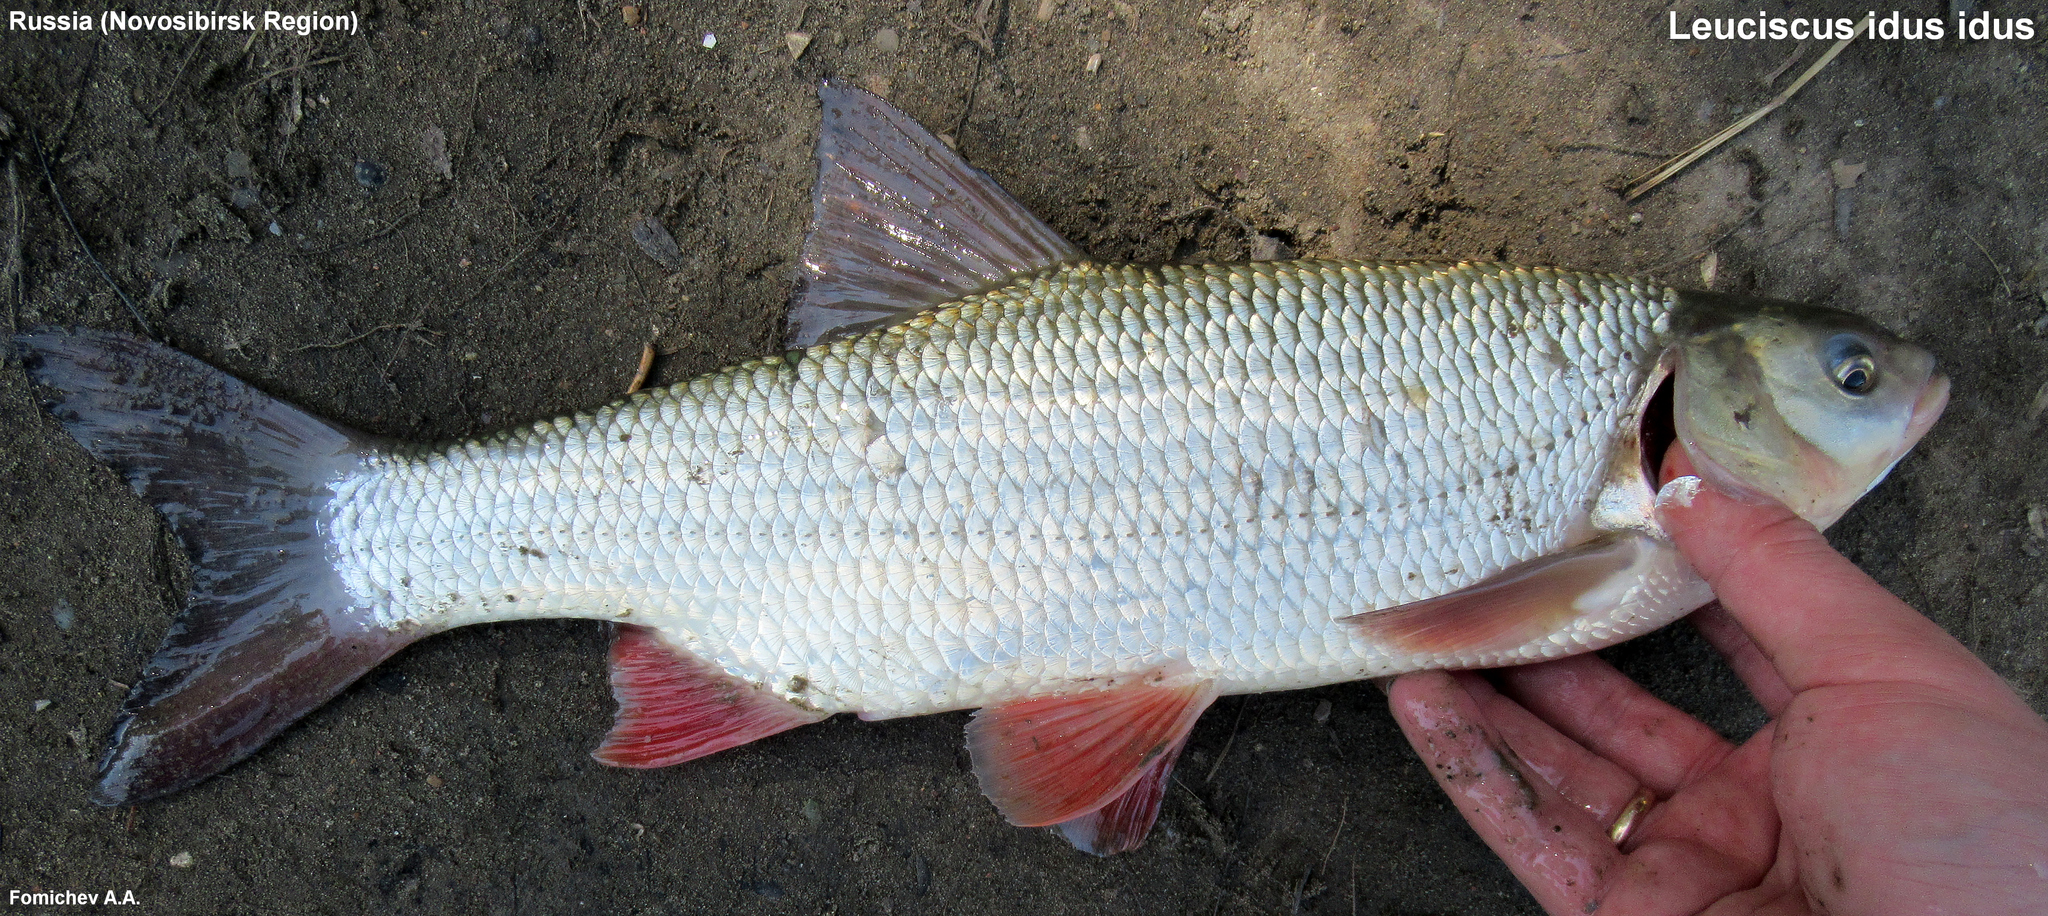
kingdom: Animalia
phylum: Chordata
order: Cypriniformes
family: Cyprinidae
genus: Leuciscus
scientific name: Leuciscus idus
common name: Ide
